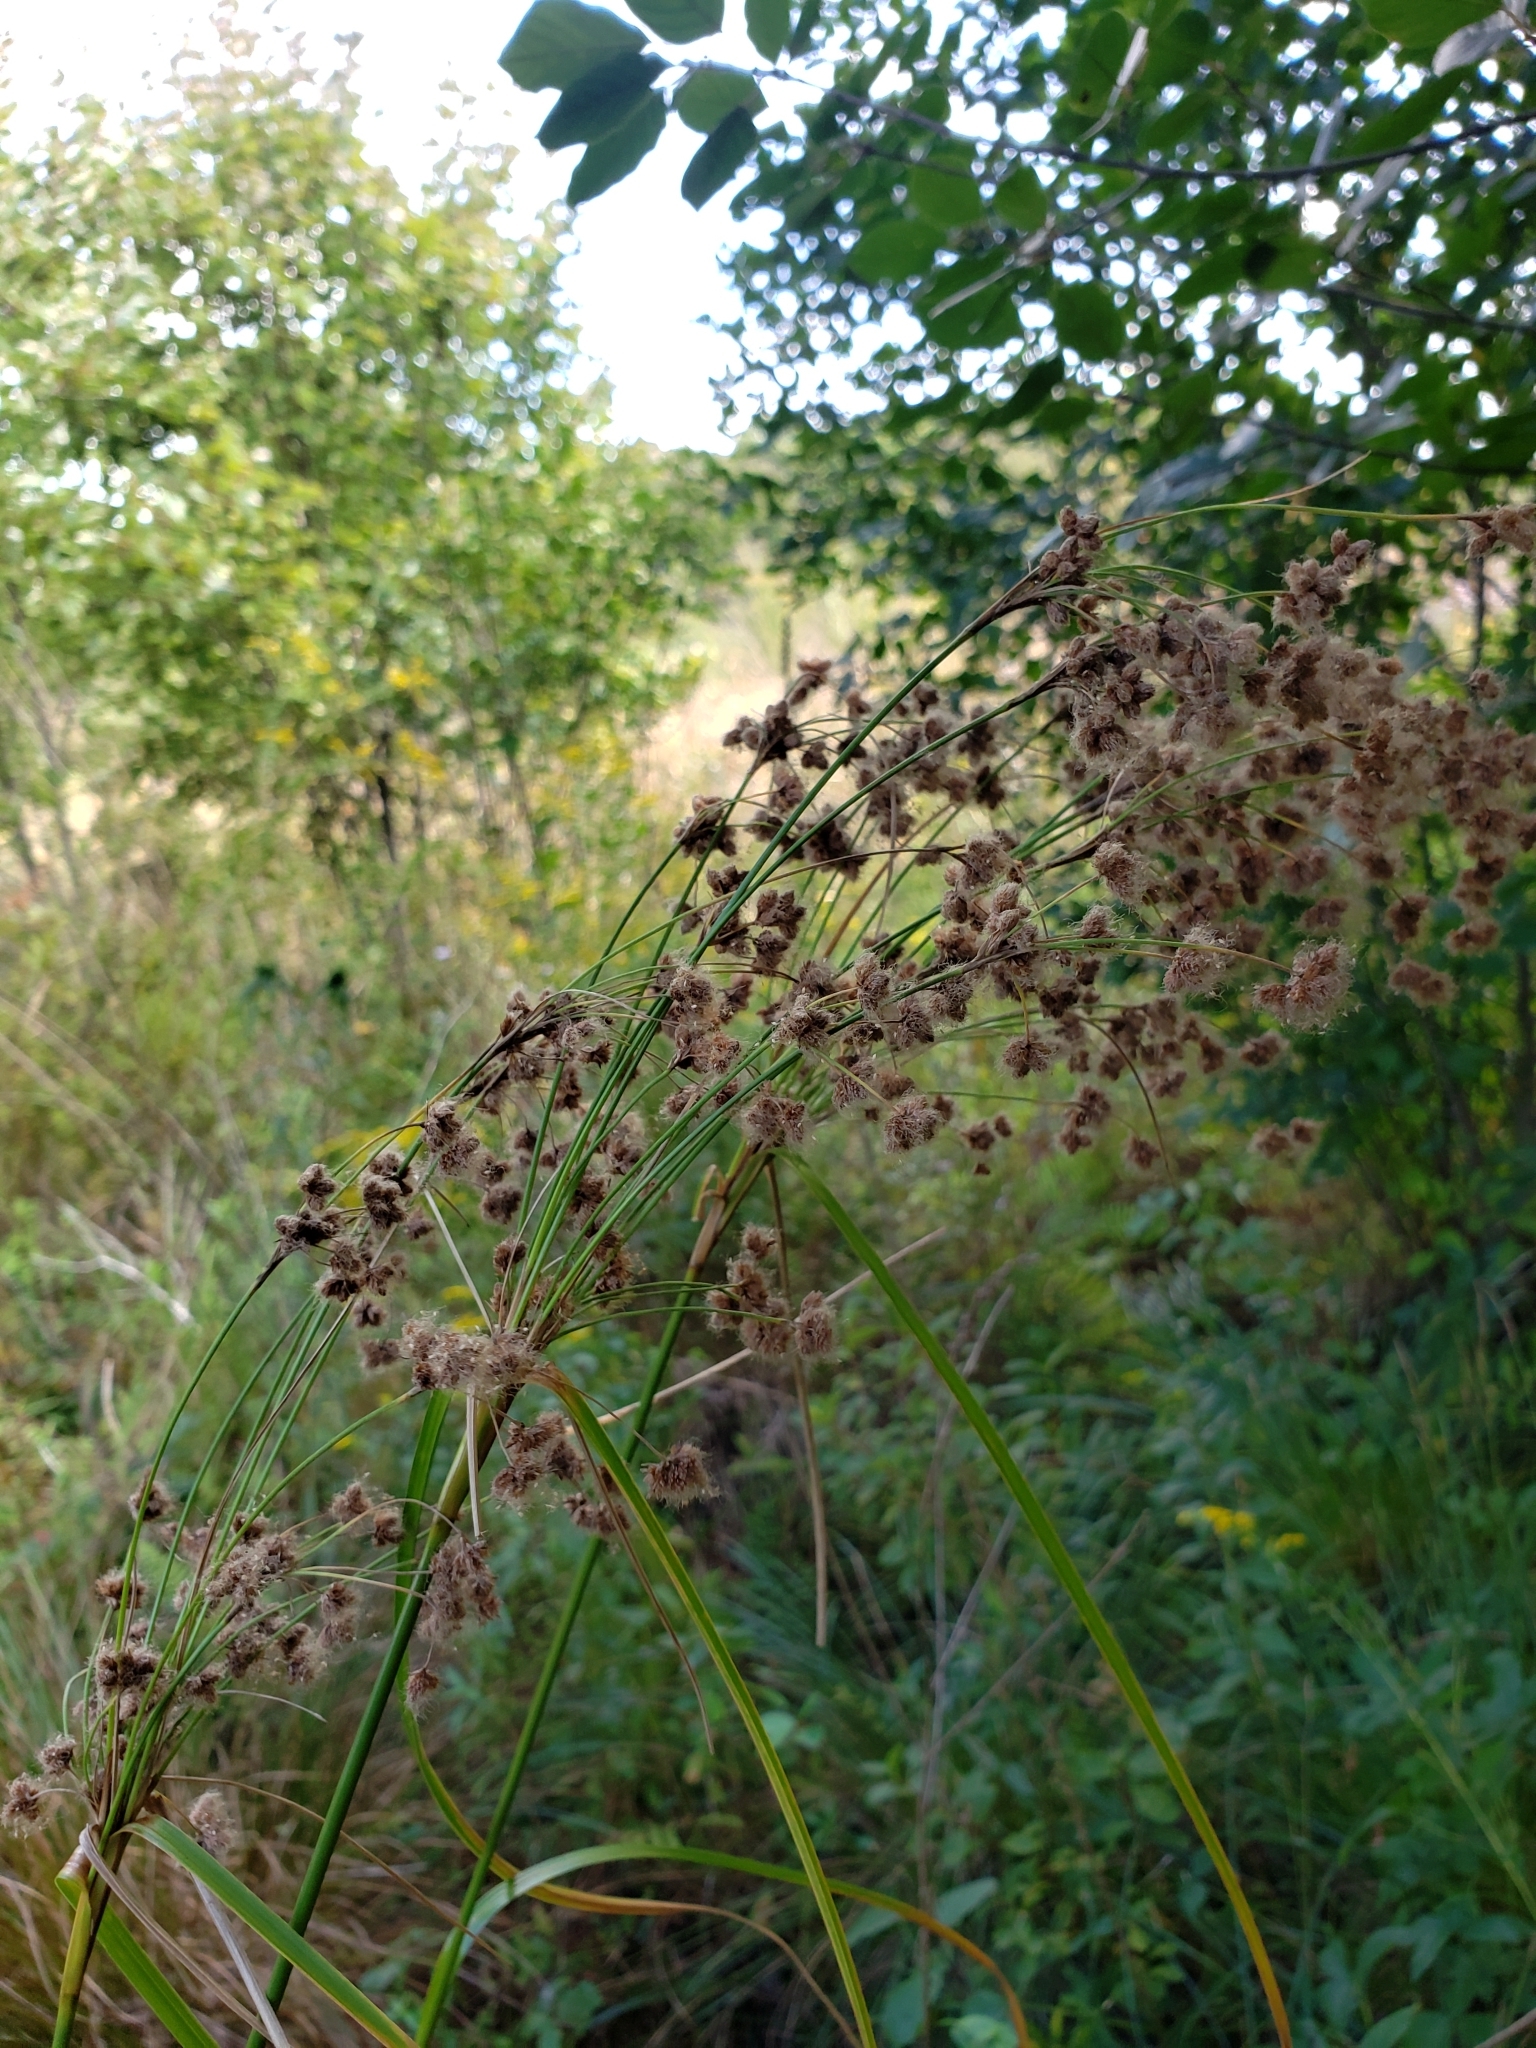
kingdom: Plantae
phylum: Tracheophyta
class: Liliopsida
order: Poales
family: Cyperaceae
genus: Scirpus
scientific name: Scirpus cyperinus
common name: Black-sheathed bulrush
